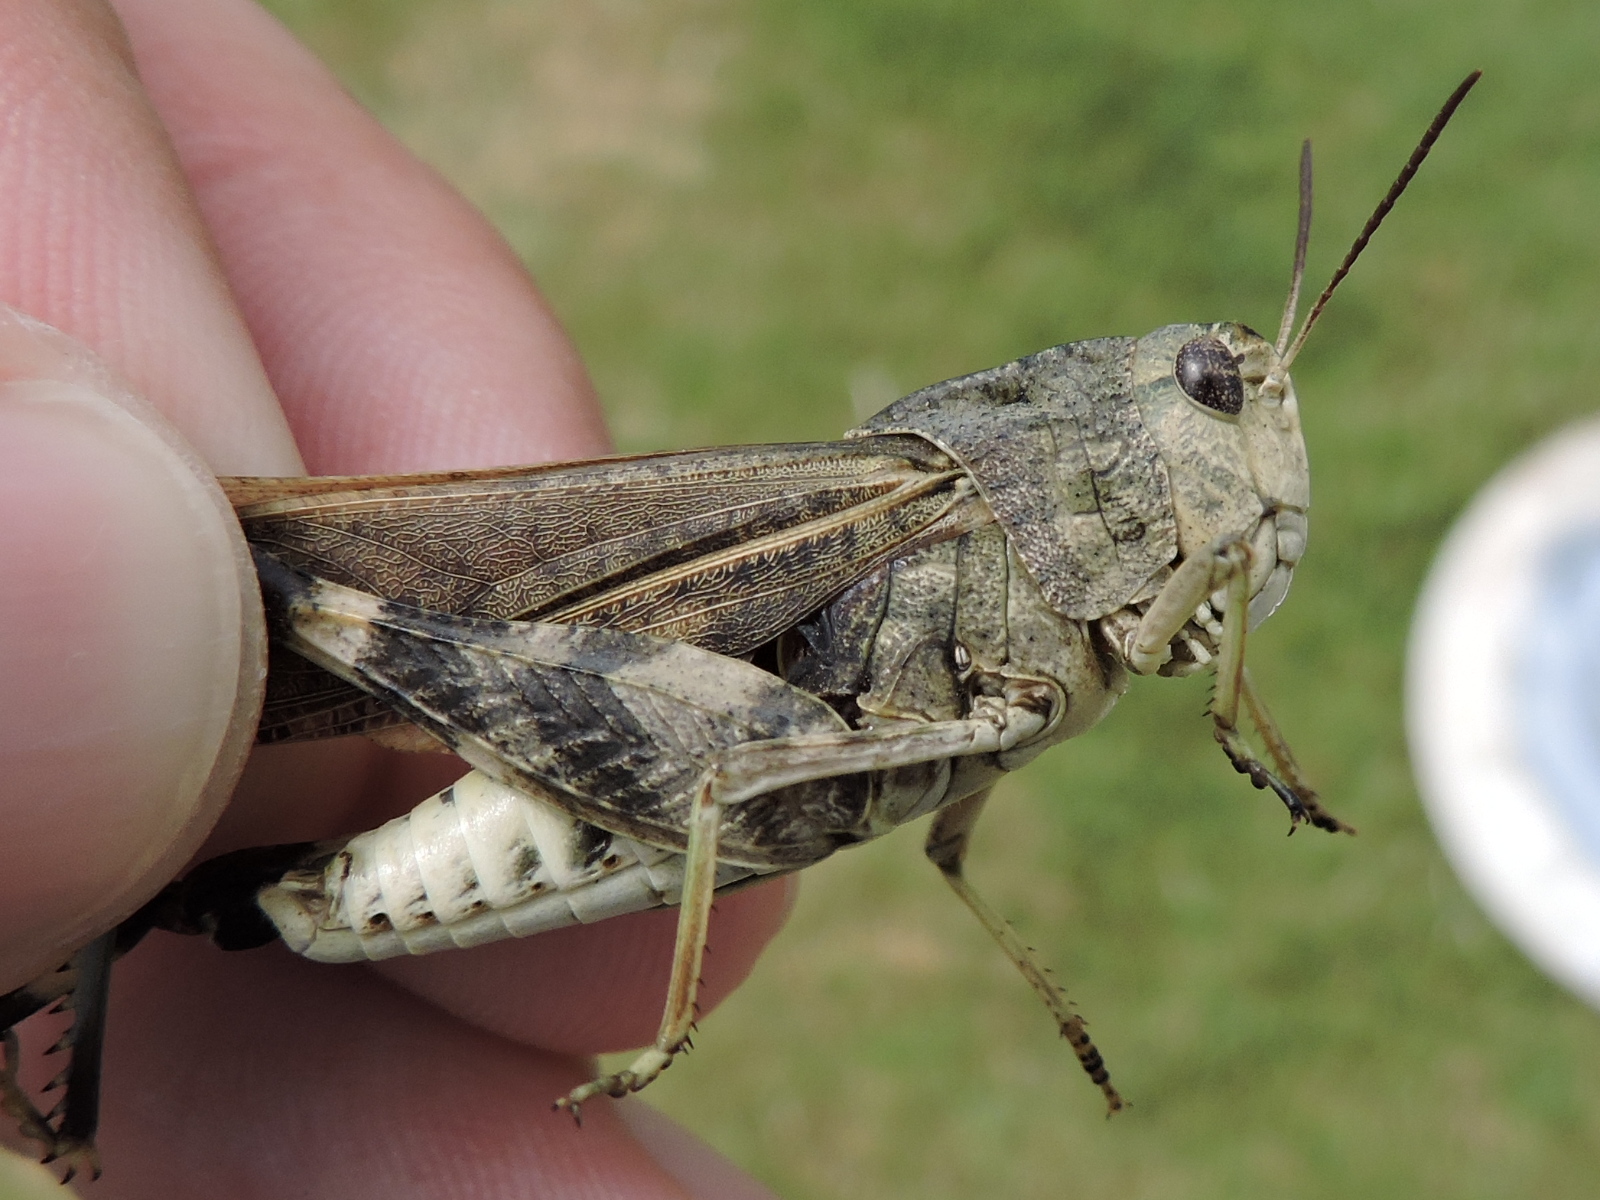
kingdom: Animalia
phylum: Arthropoda
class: Insecta
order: Orthoptera
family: Acrididae
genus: Arphia
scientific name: Arphia simplex
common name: Plains yellow-winged grasshopper
